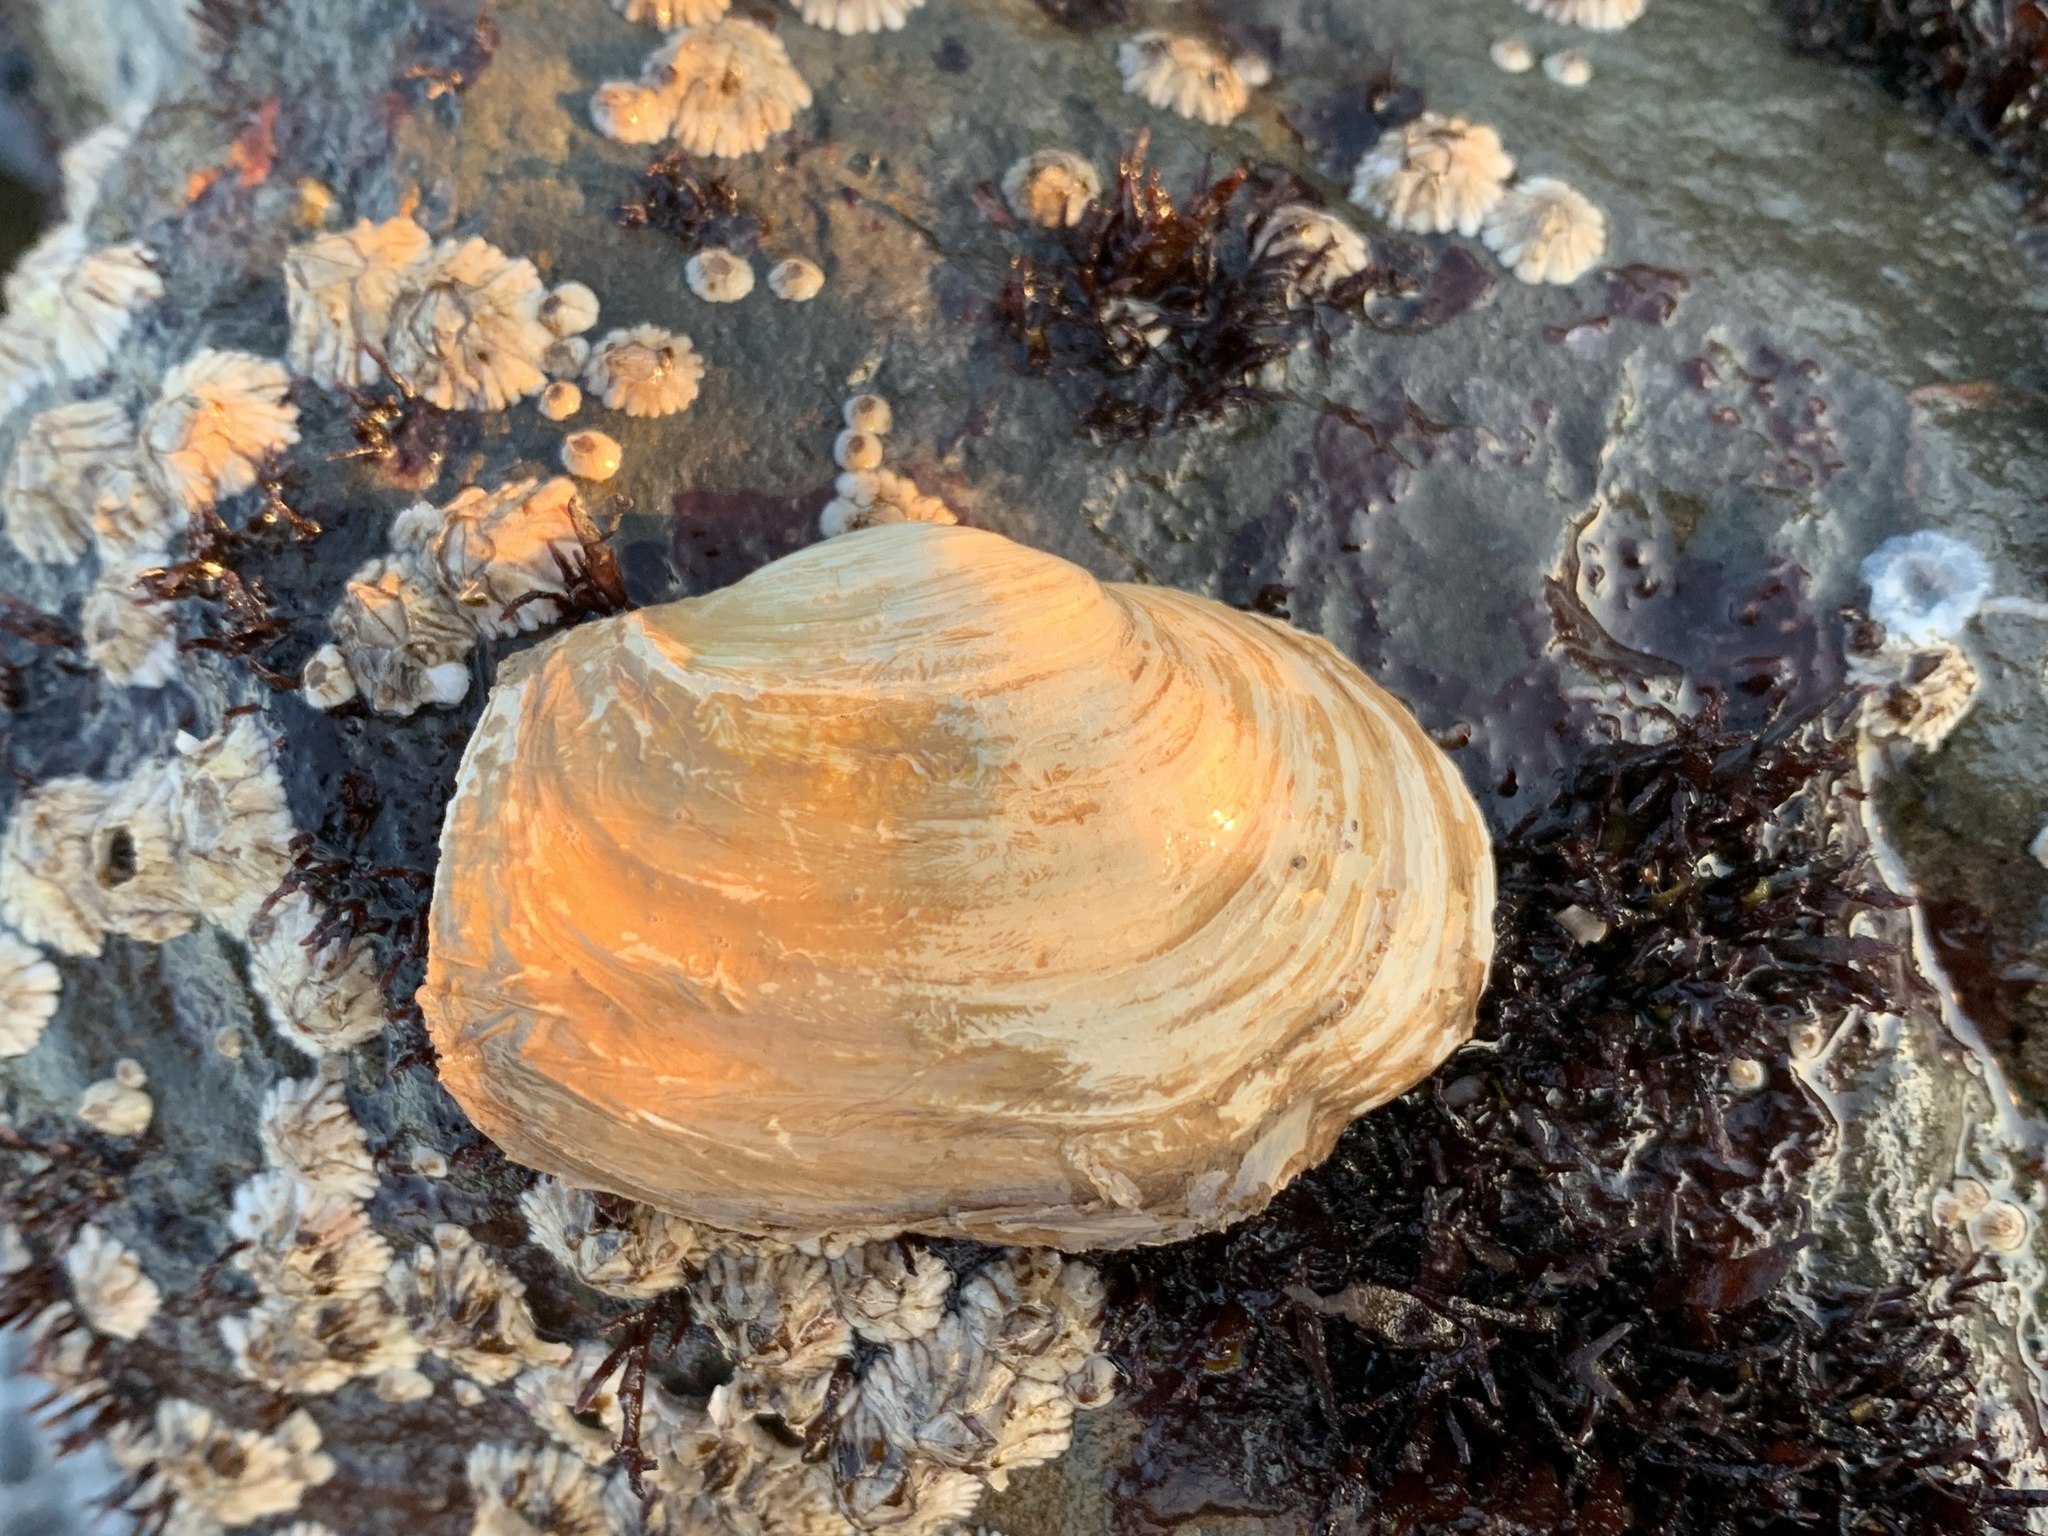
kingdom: Animalia
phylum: Mollusca
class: Bivalvia
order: Myida
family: Myidae
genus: Mya
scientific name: Mya truncata
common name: Blunt gaper
